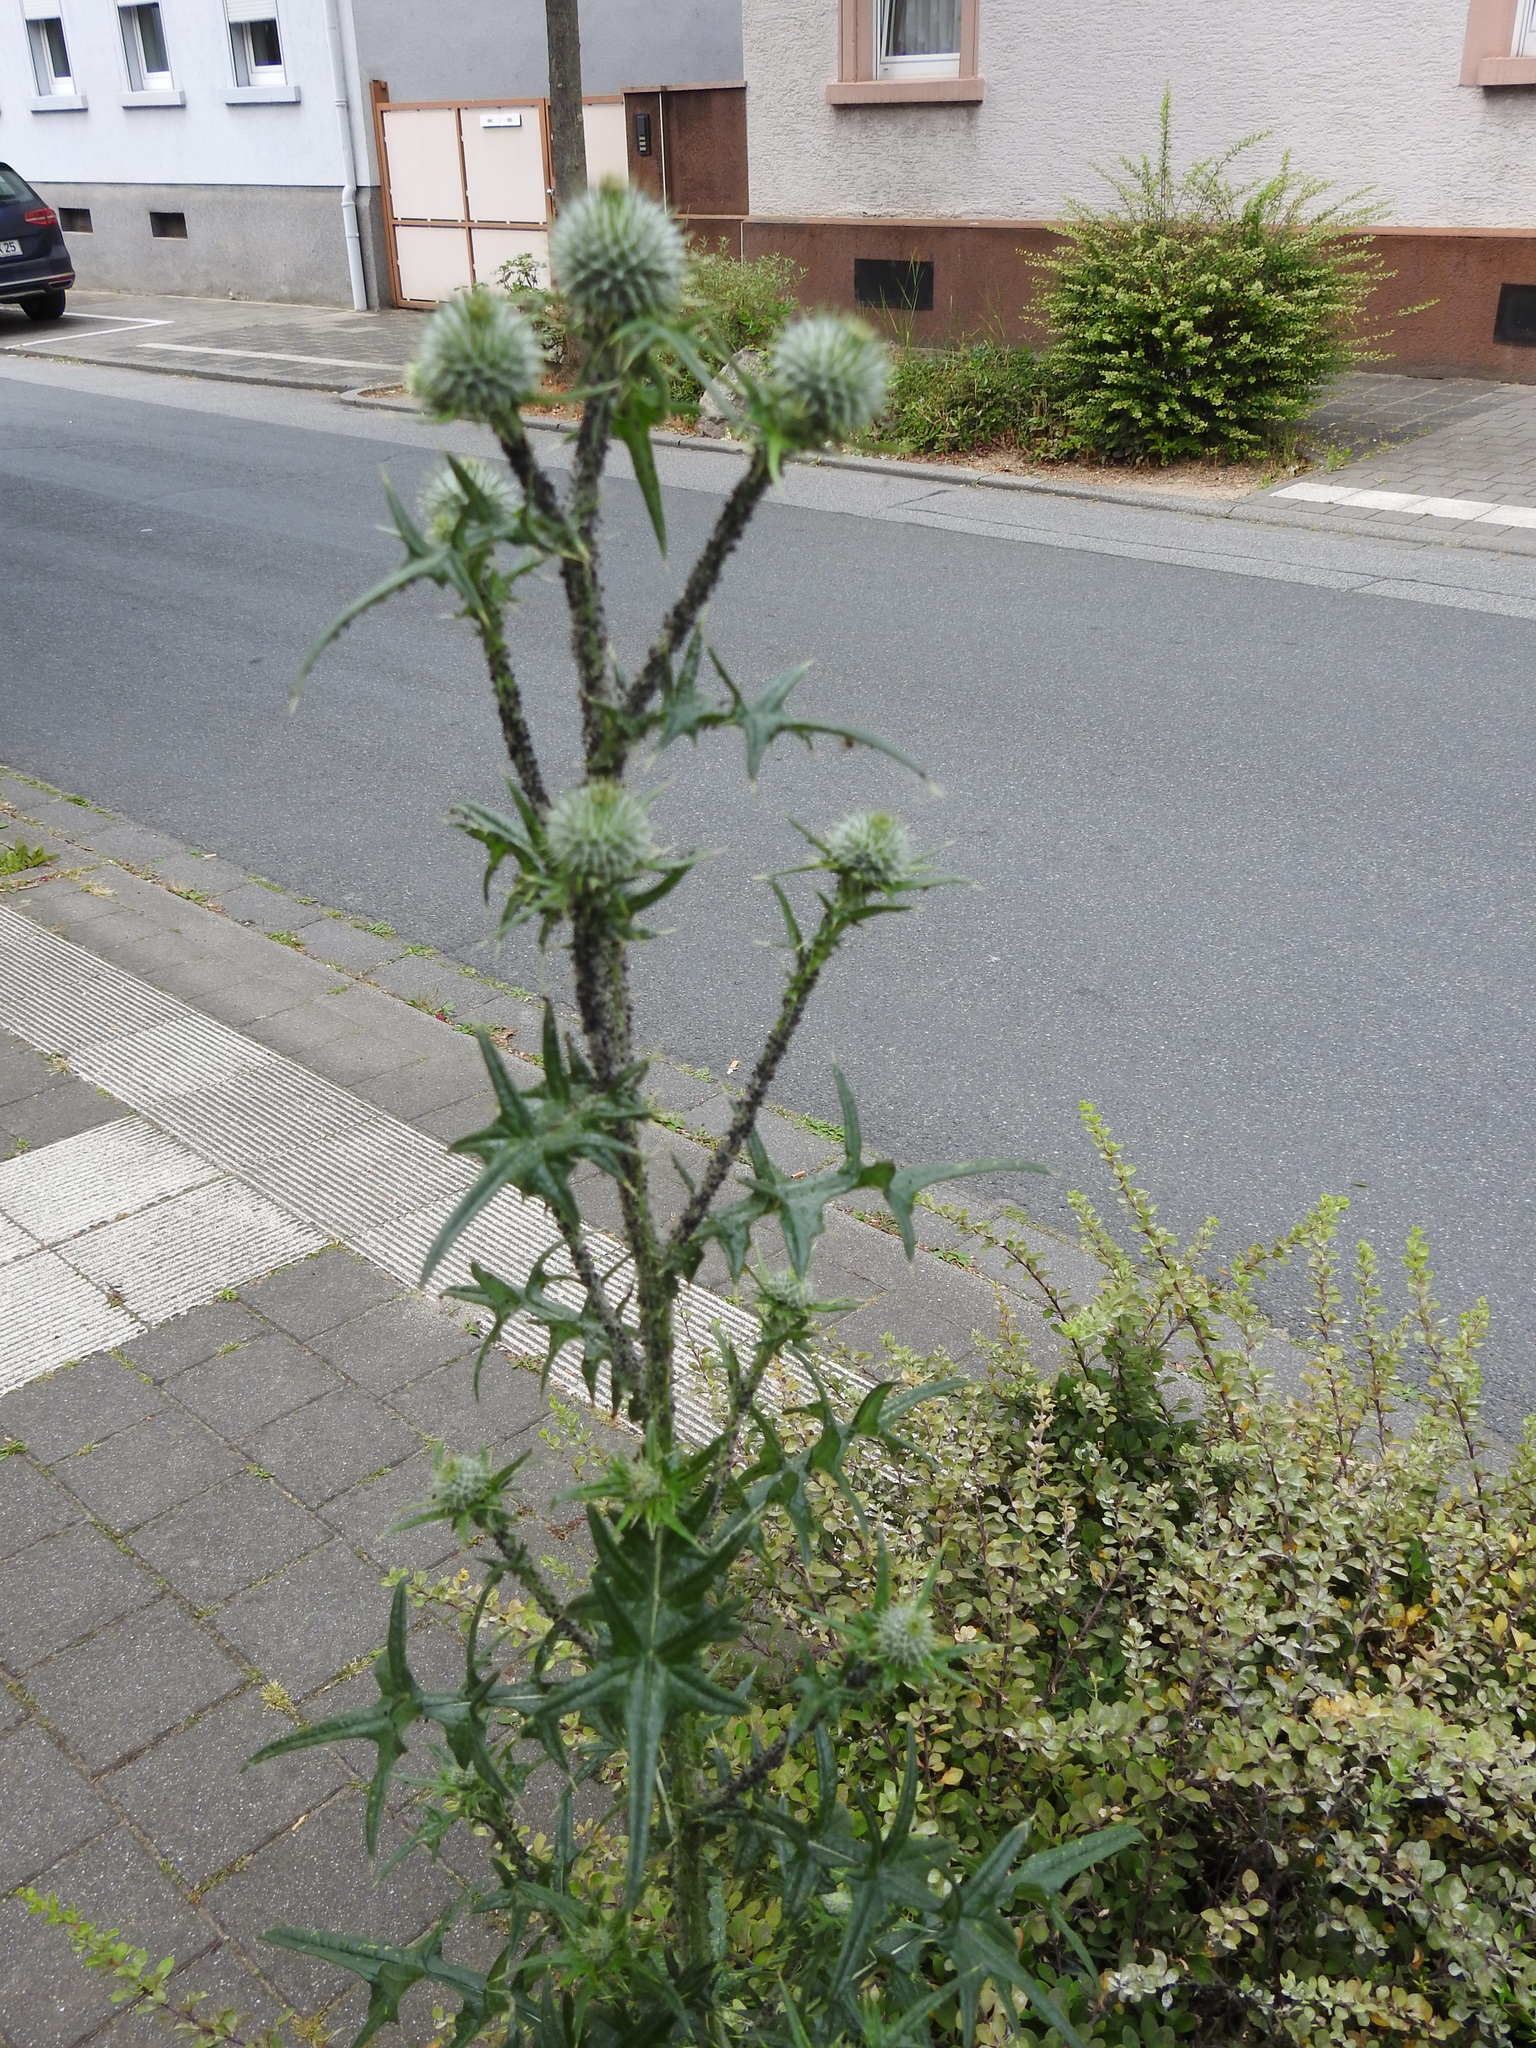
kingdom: Plantae
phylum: Tracheophyta
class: Magnoliopsida
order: Asterales
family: Asteraceae
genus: Cirsium
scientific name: Cirsium vulgare
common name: Bull thistle
